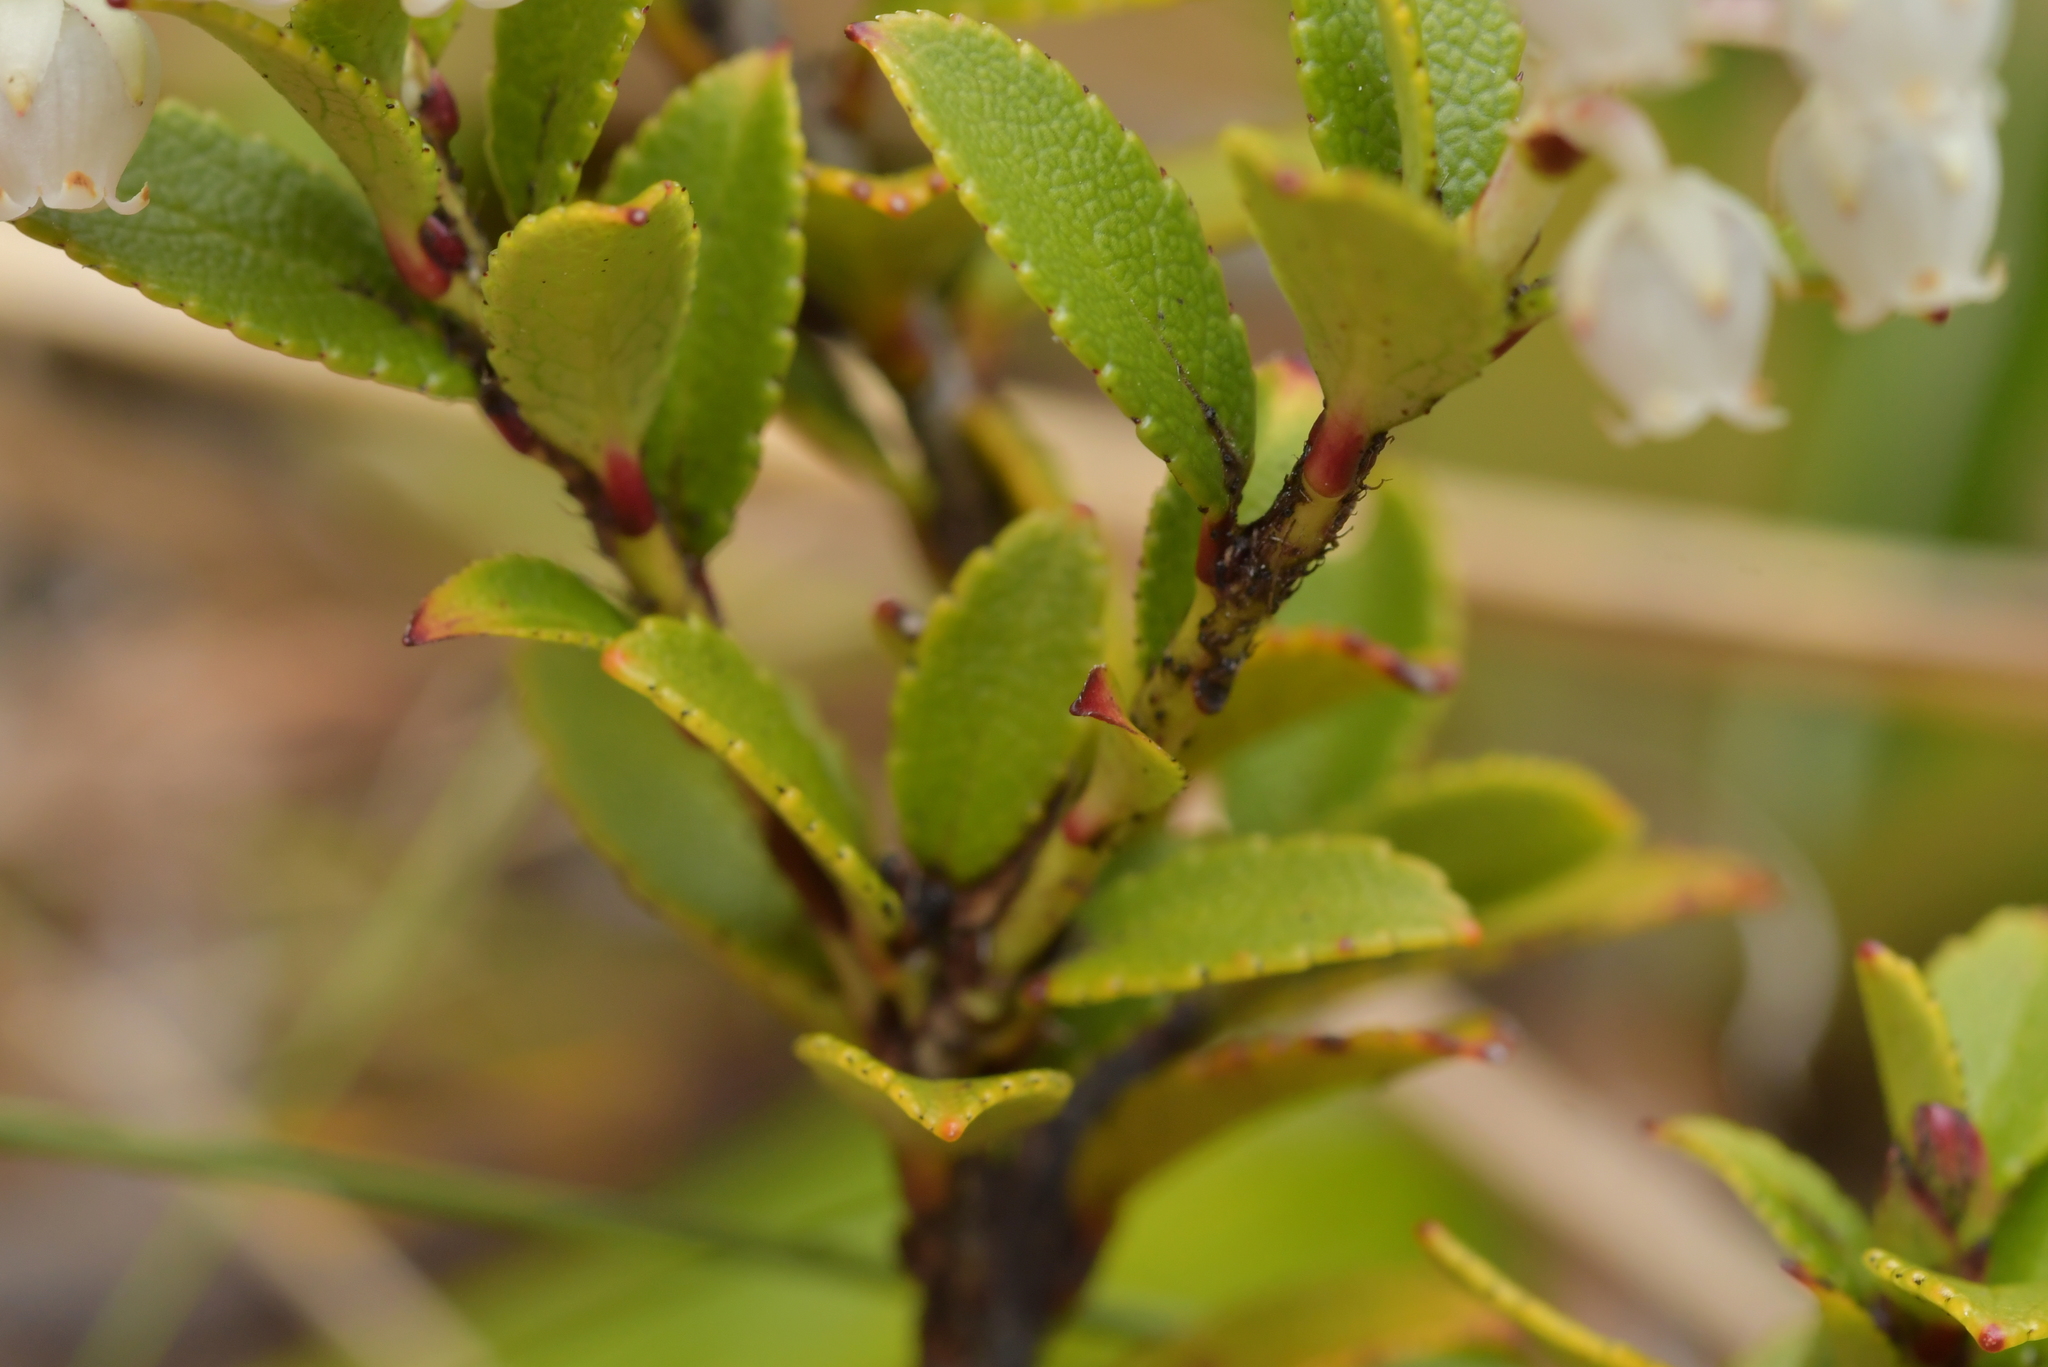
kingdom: Plantae
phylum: Tracheophyta
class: Magnoliopsida
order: Ericales
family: Ericaceae
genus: Gaultheria
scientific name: Gaultheria crassa
